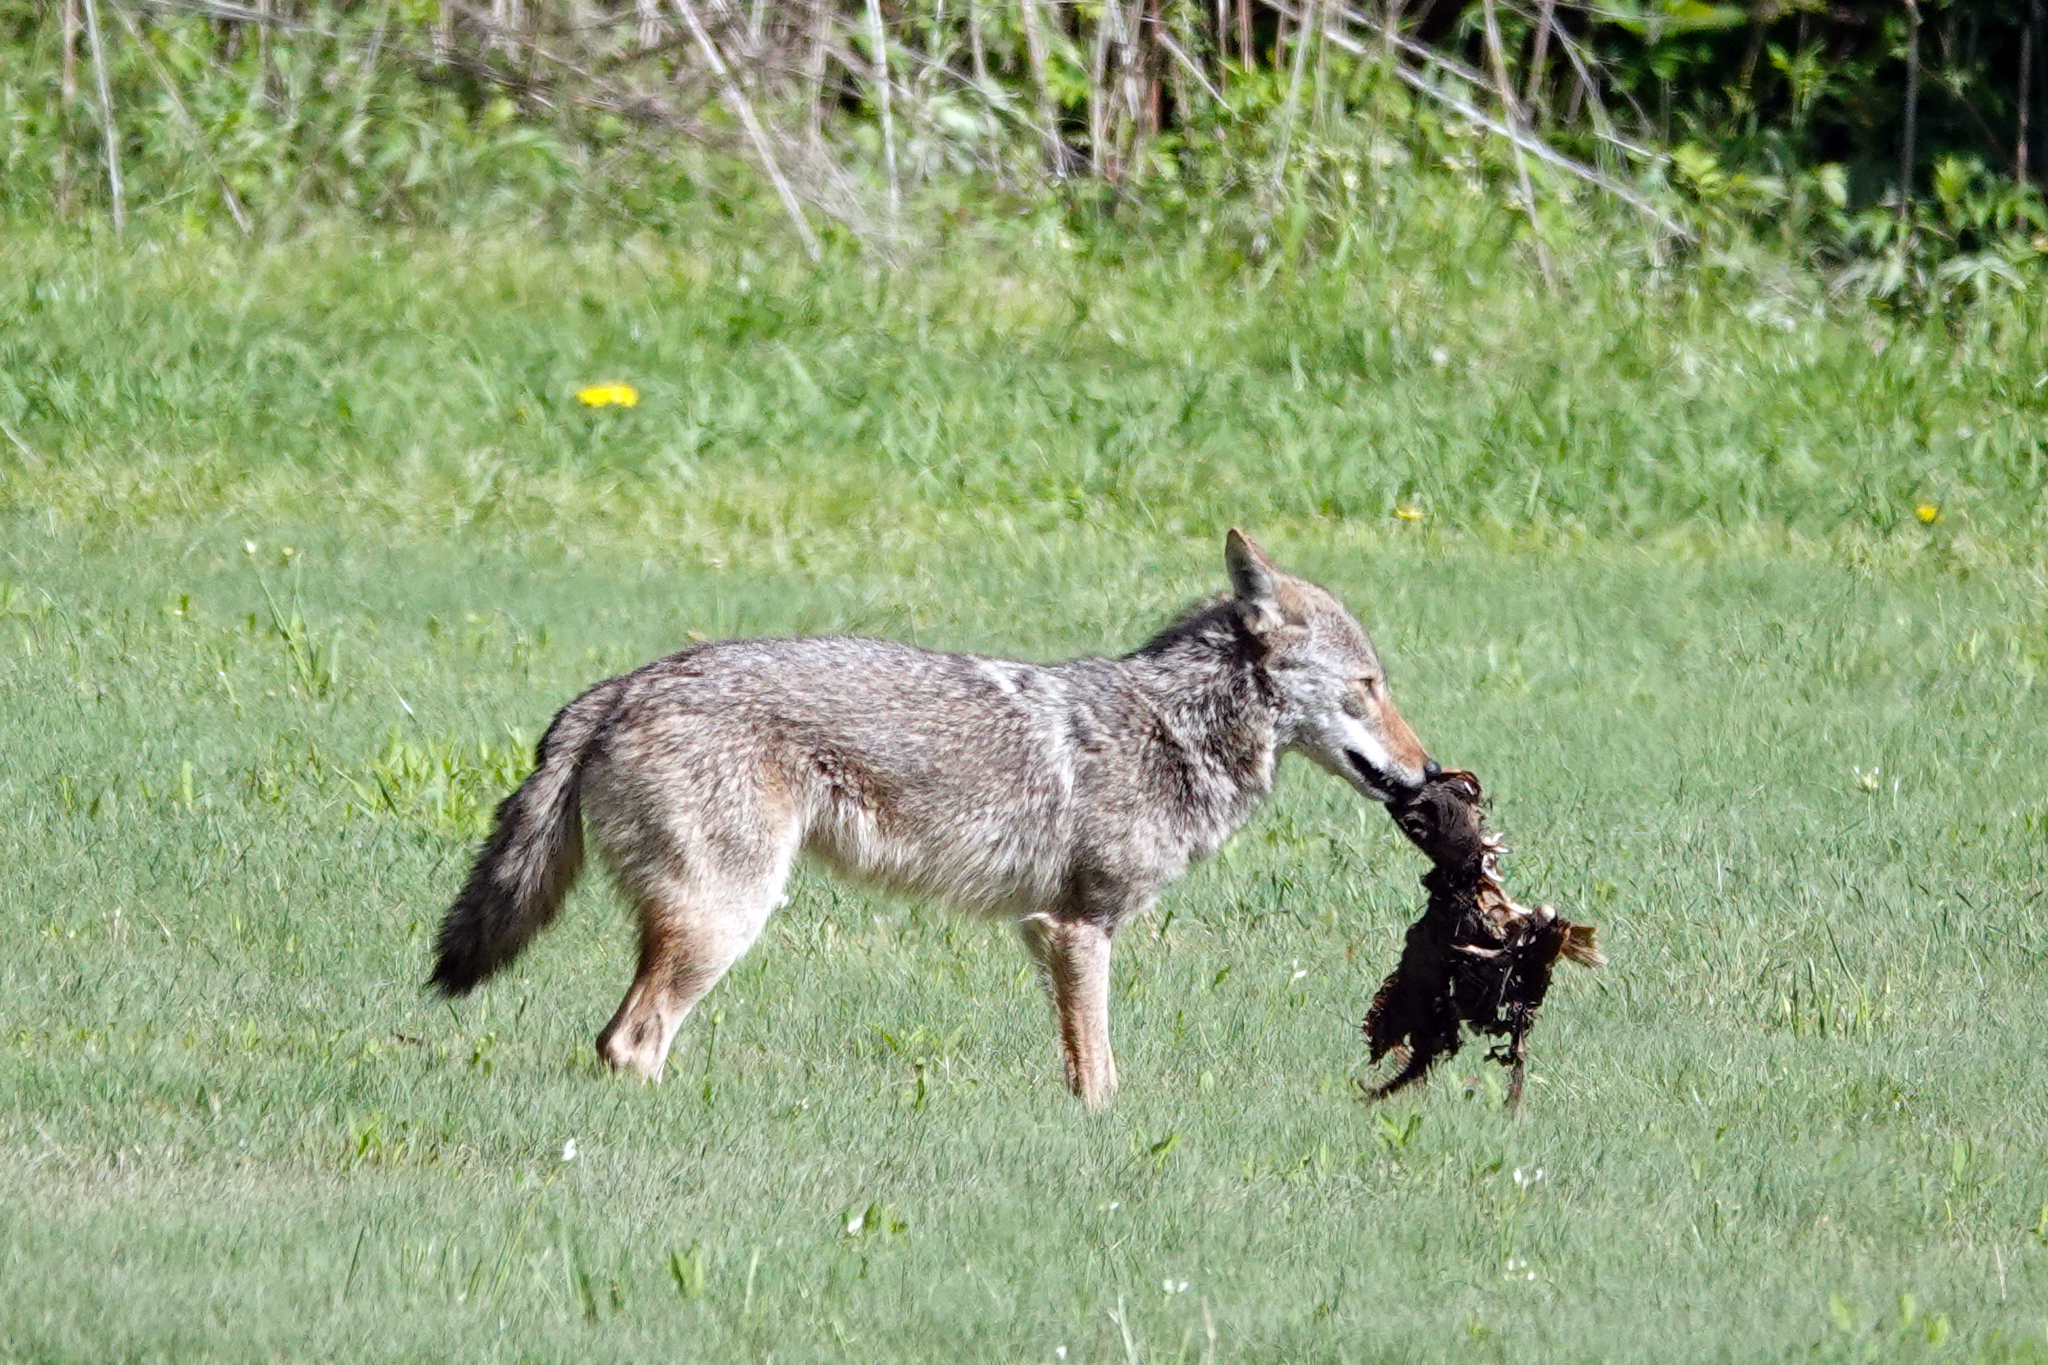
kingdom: Animalia
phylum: Chordata
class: Mammalia
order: Carnivora
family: Canidae
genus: Canis
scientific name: Canis latrans
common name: Coyote
